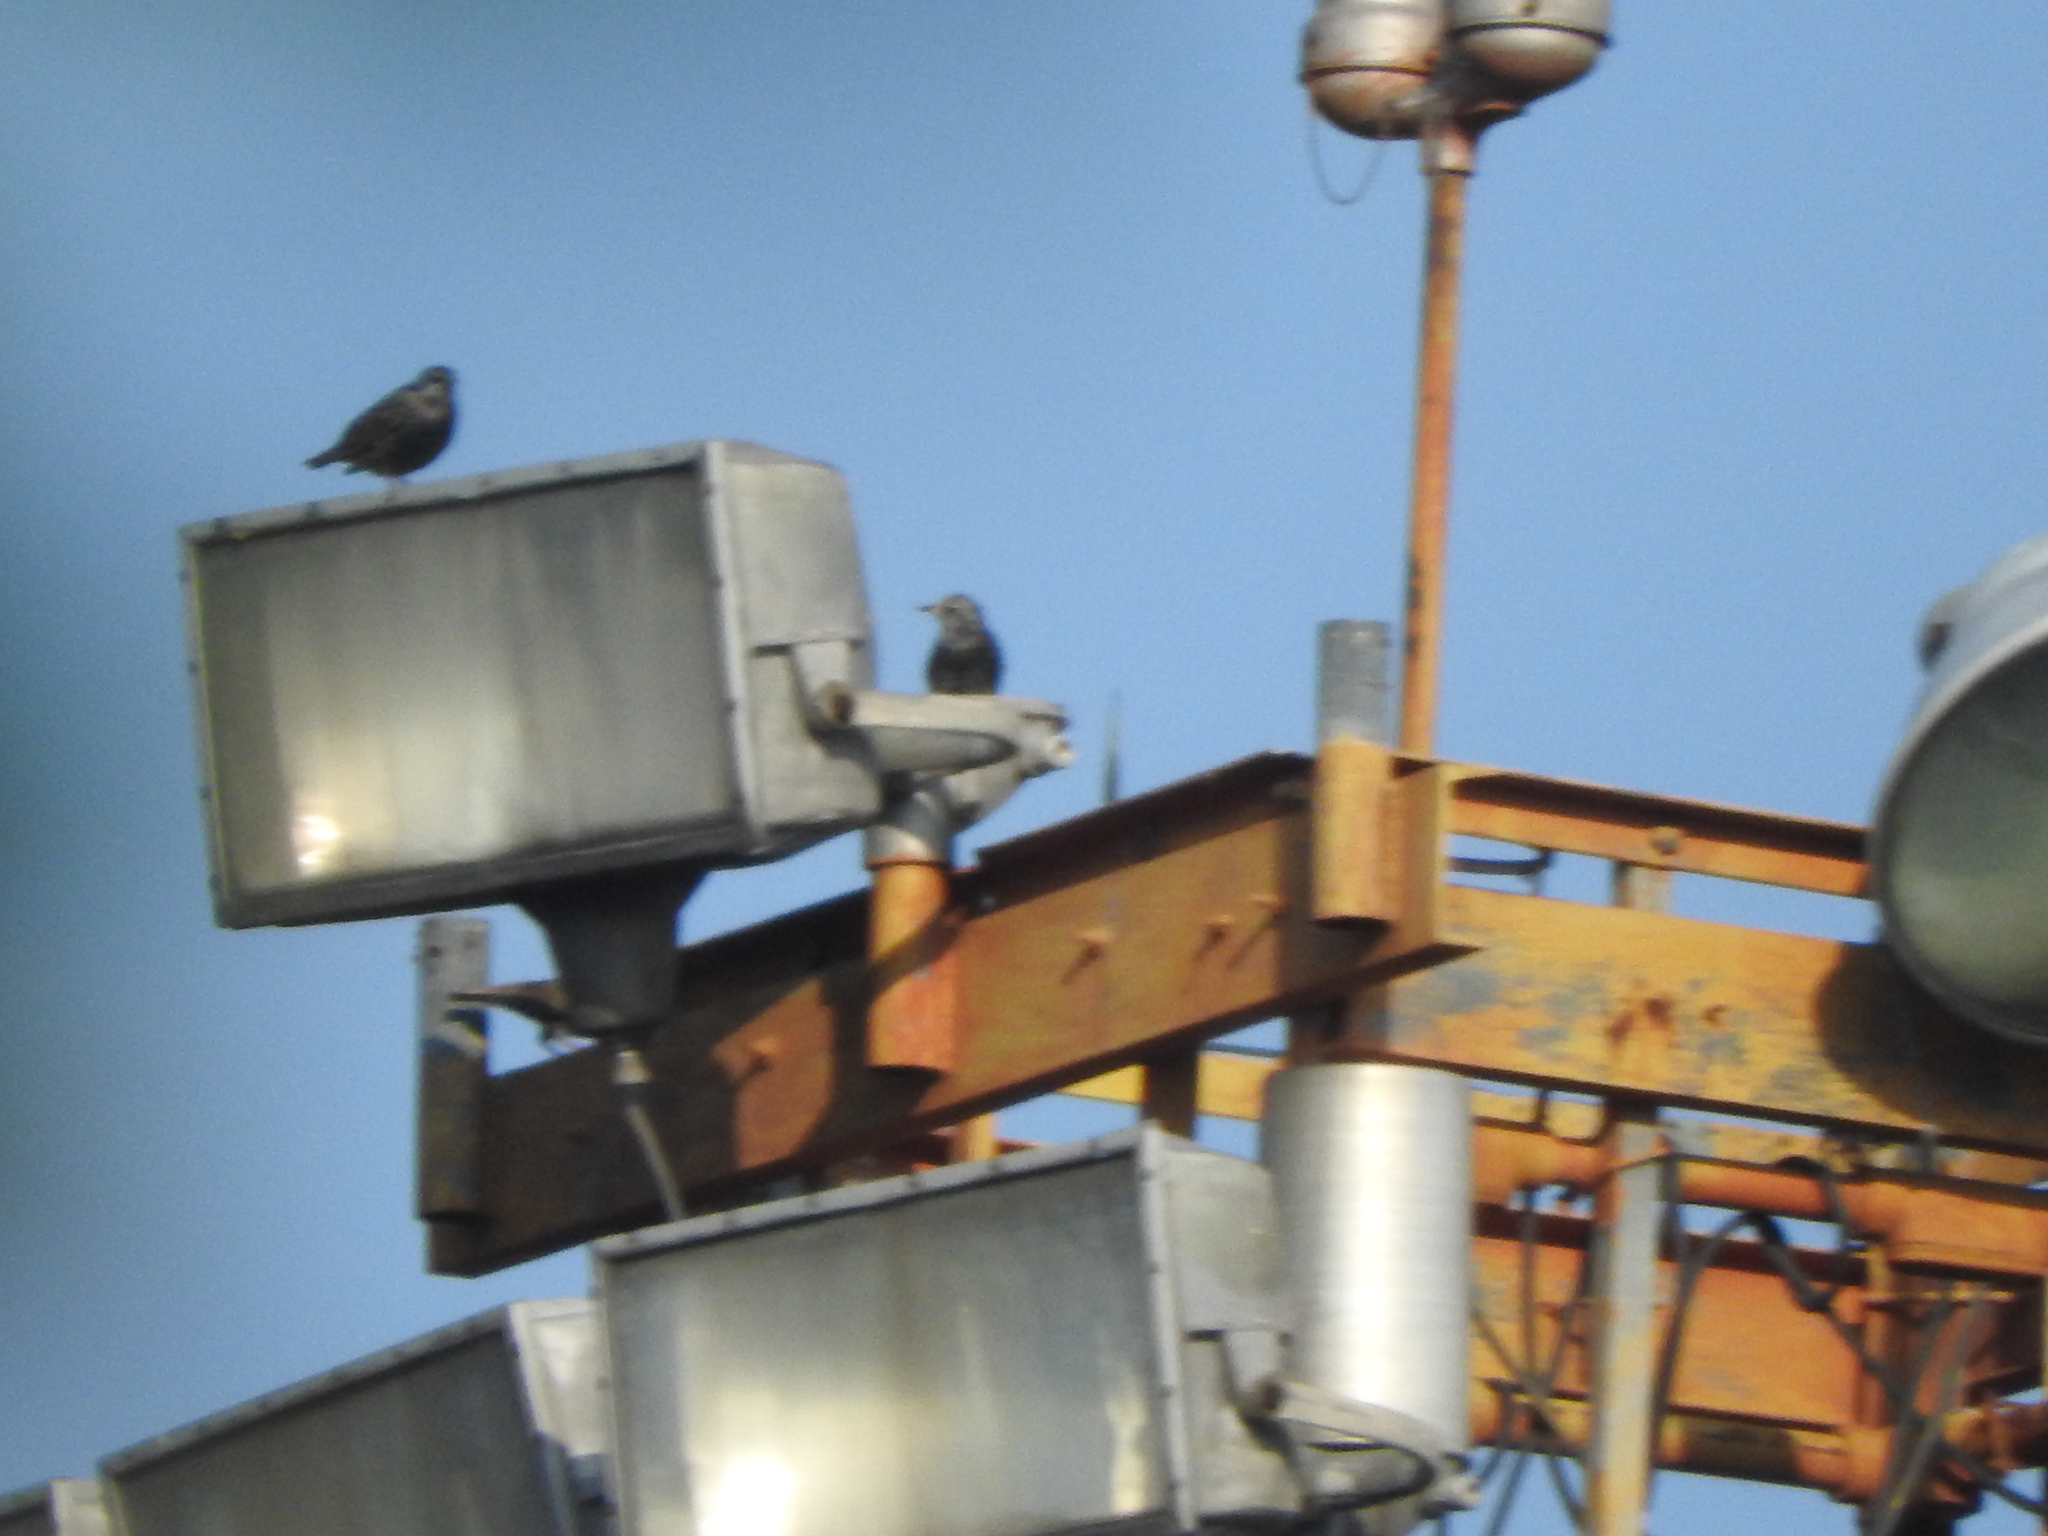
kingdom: Animalia
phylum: Chordata
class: Aves
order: Passeriformes
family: Sturnidae
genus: Sturnus
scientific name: Sturnus vulgaris
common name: Common starling
